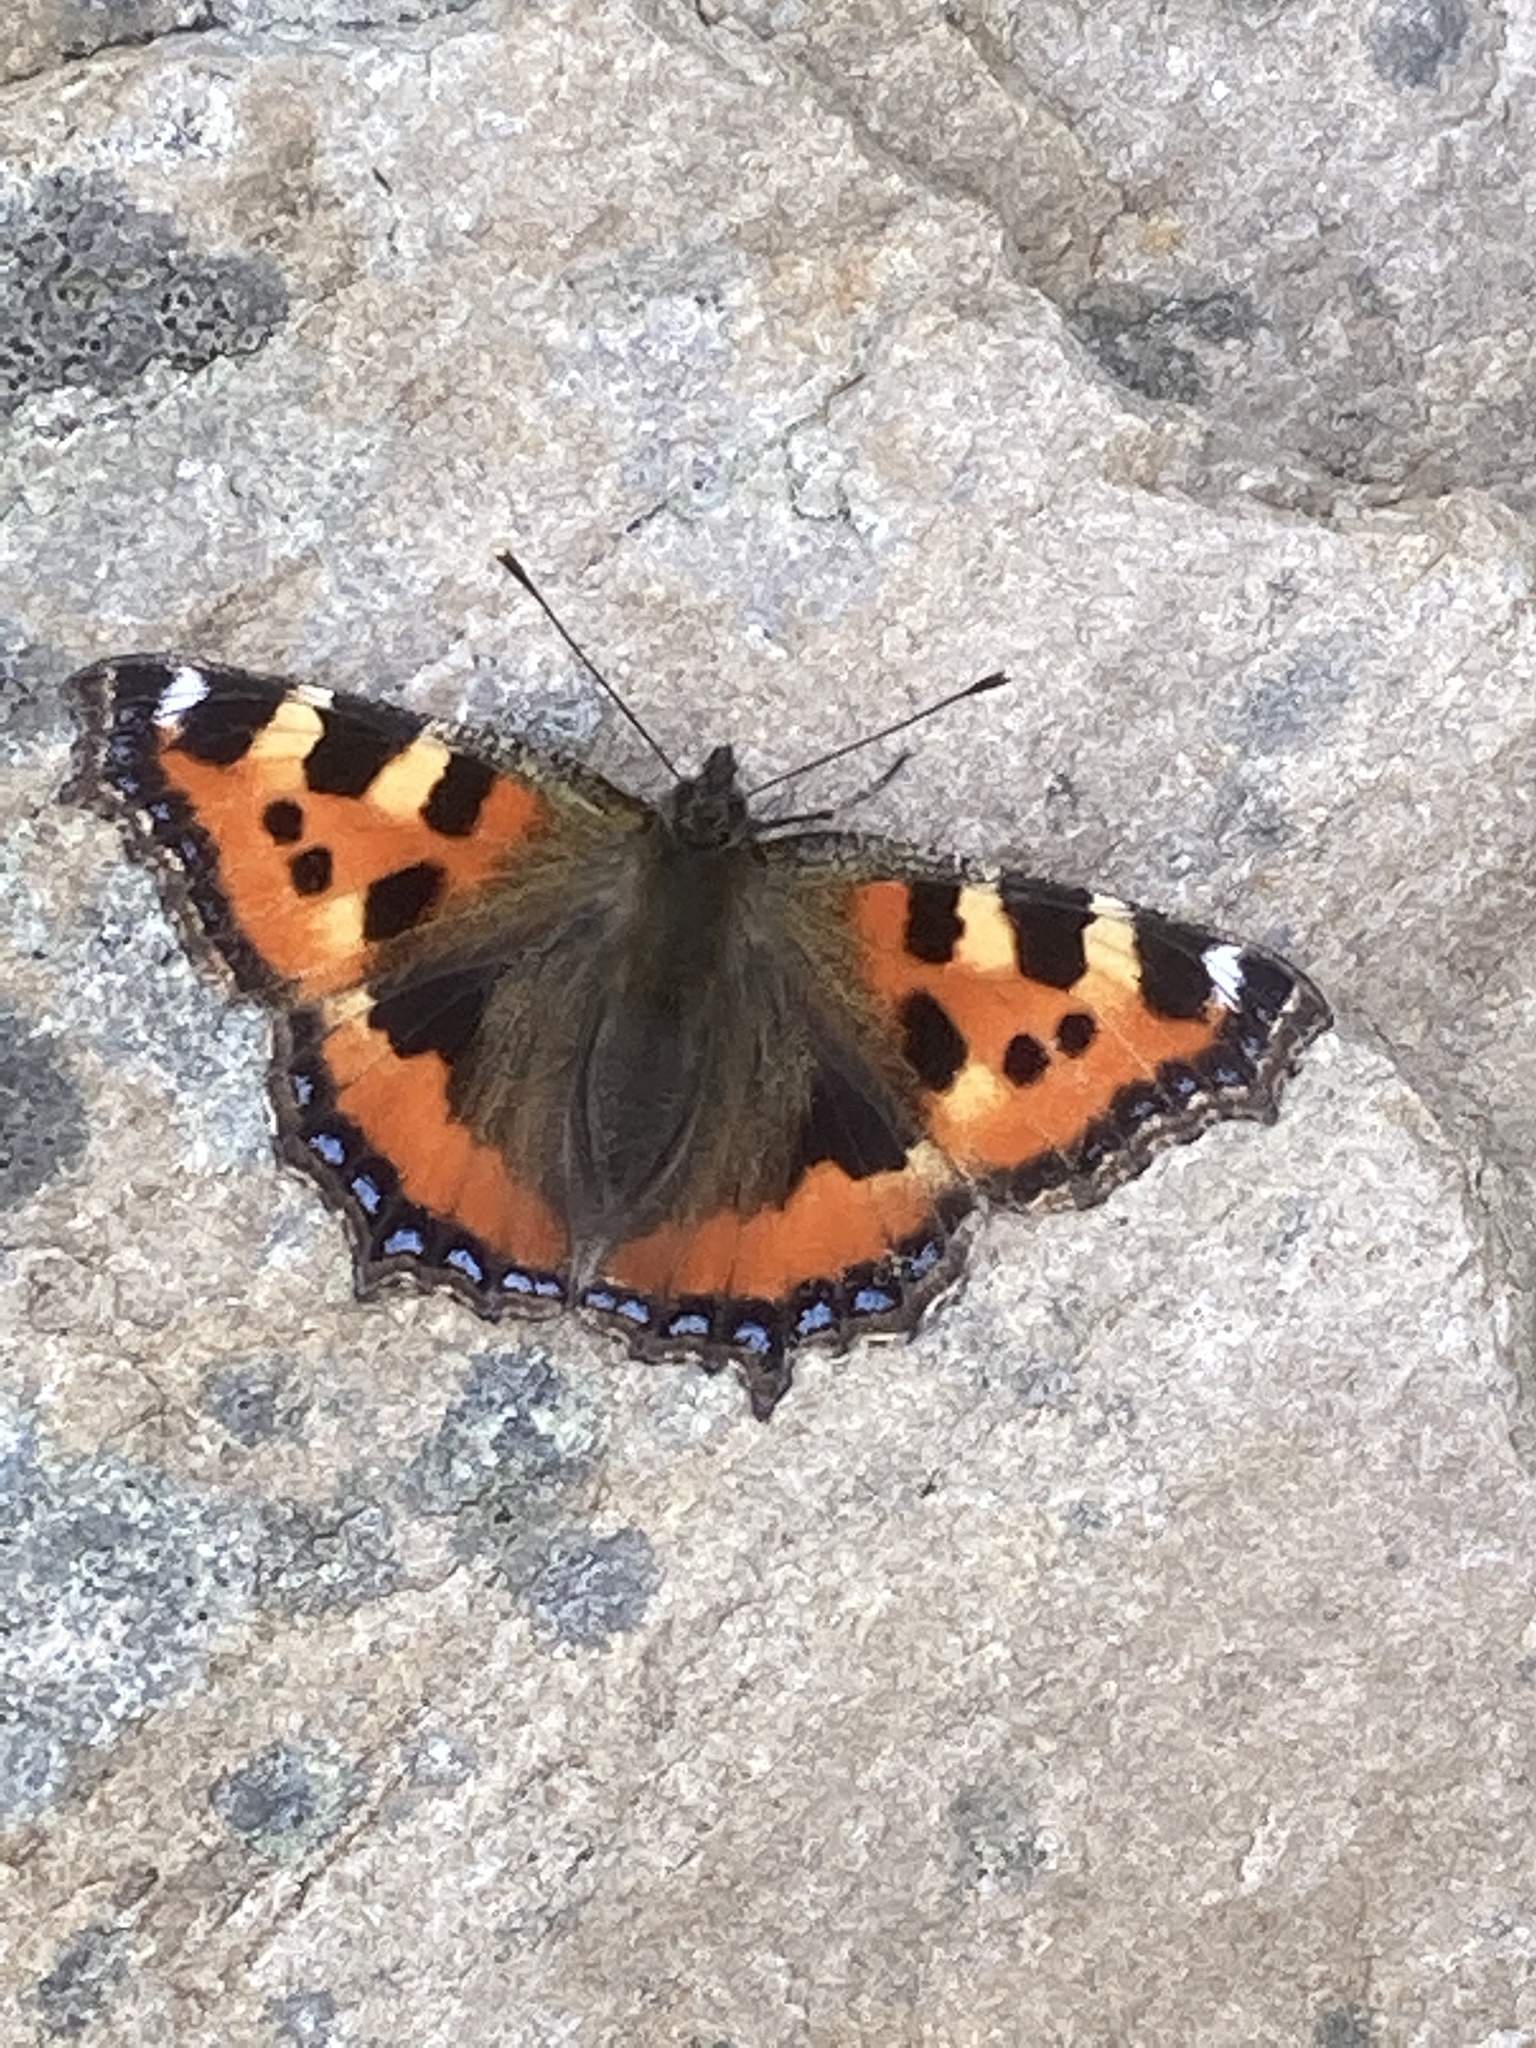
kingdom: Animalia
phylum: Arthropoda
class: Insecta
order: Lepidoptera
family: Nymphalidae
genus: Aglais
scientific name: Aglais urticae
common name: Small tortoiseshell
